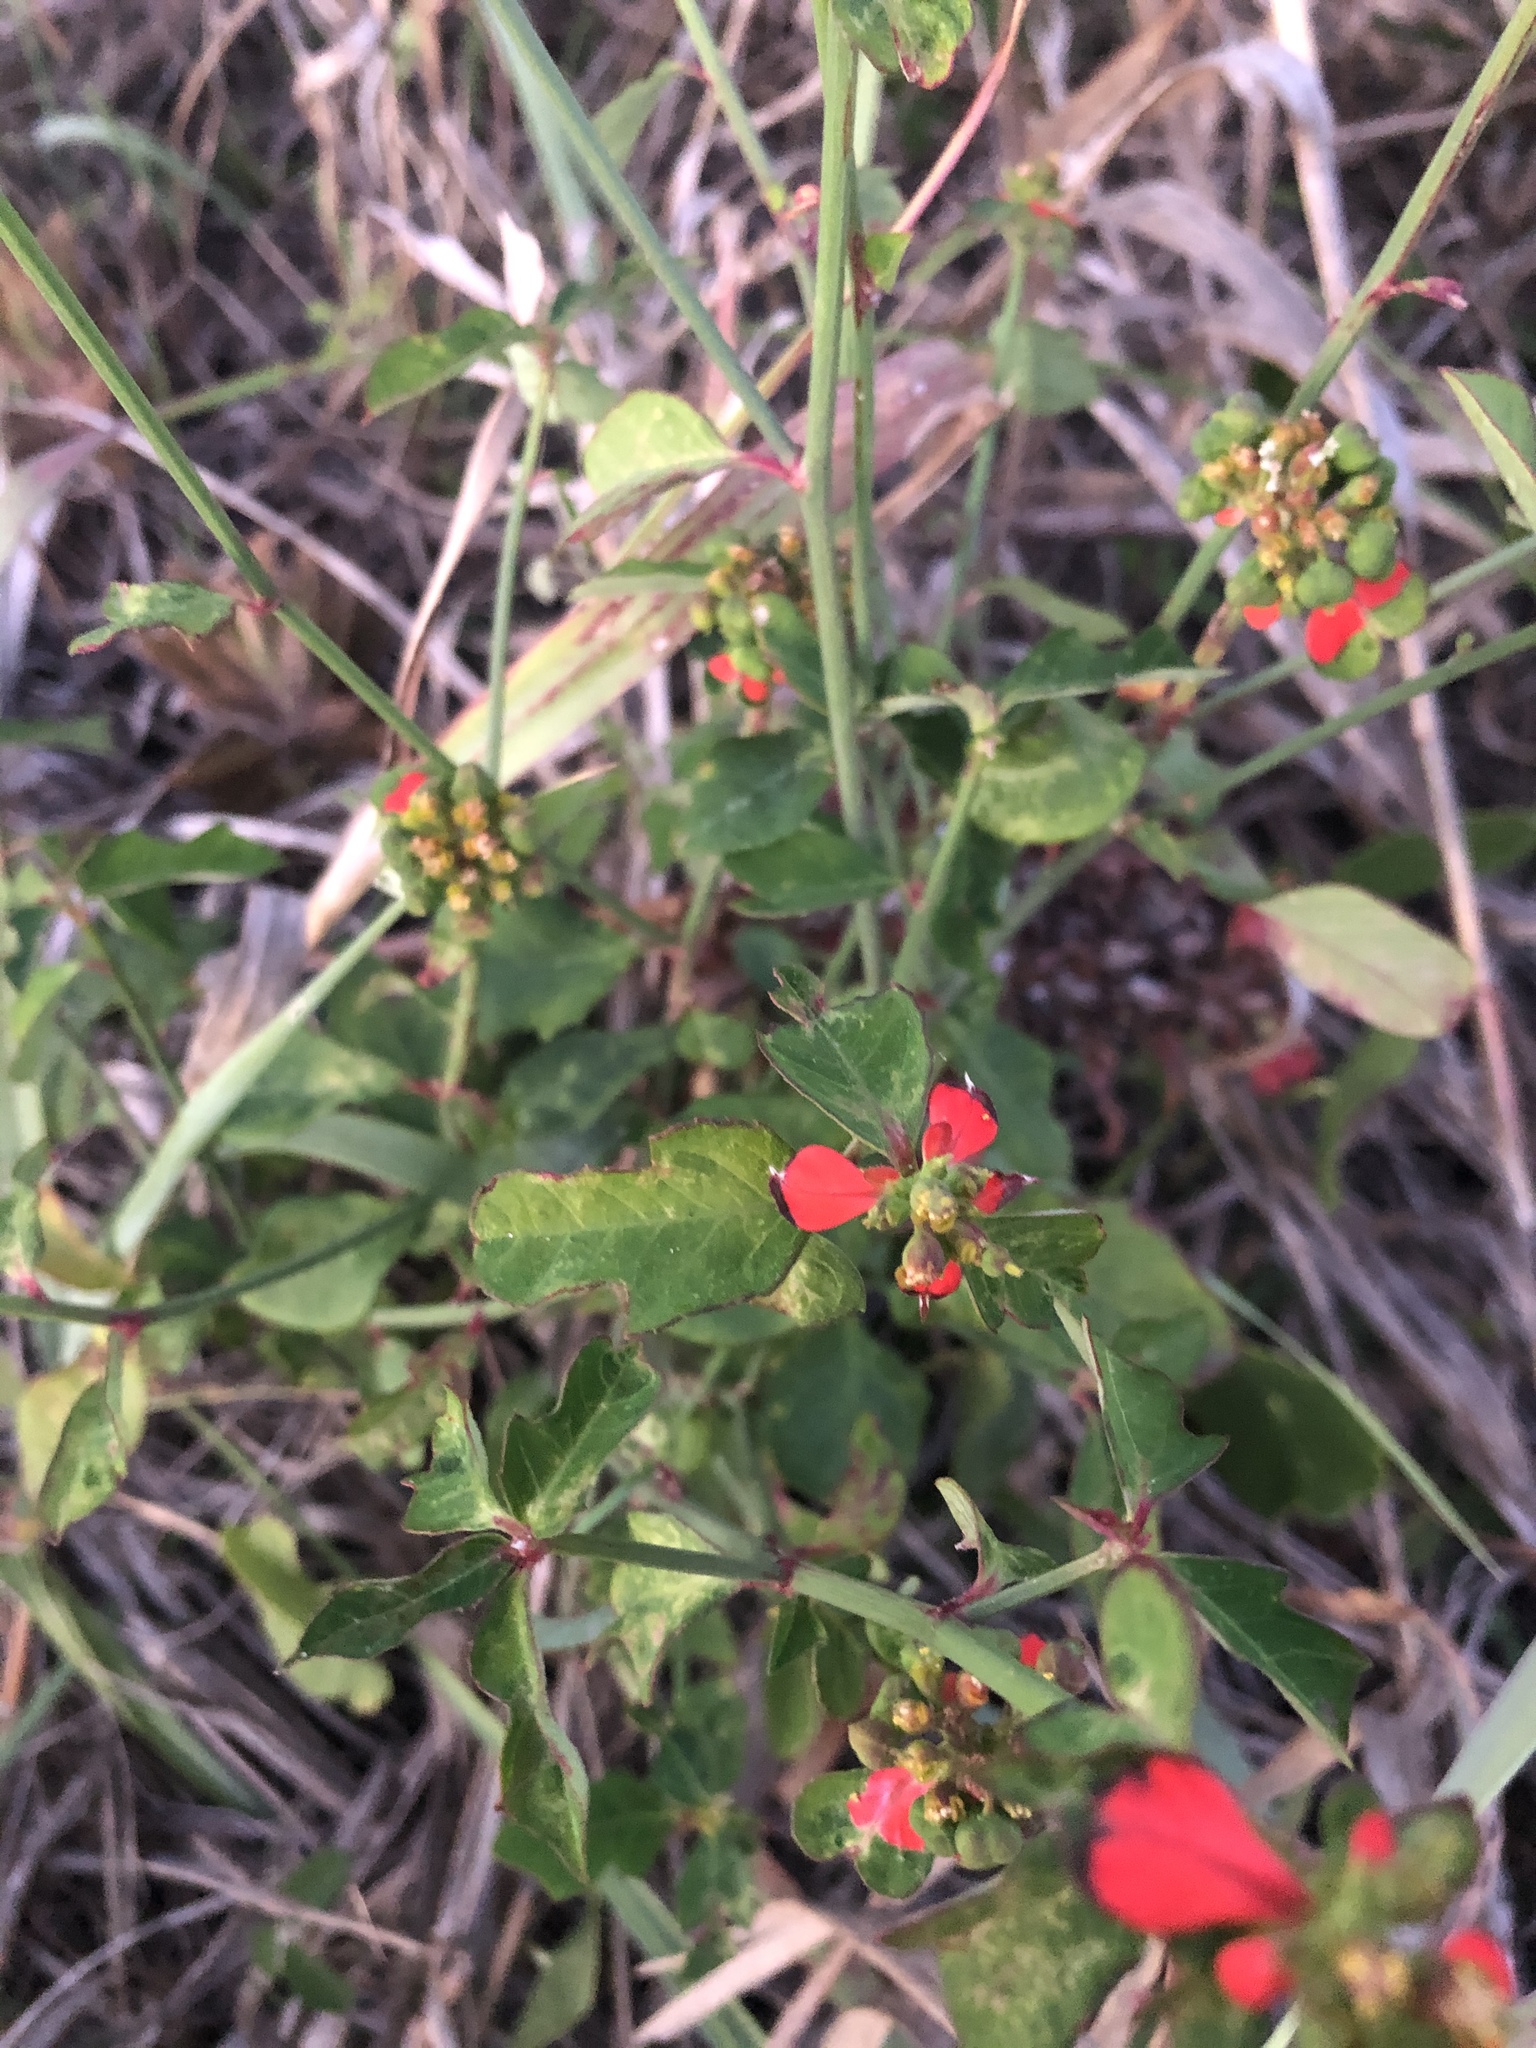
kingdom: Plantae
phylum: Tracheophyta
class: Magnoliopsida
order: Malpighiales
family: Euphorbiaceae
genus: Euphorbia
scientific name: Euphorbia heterophylla
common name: Mexican fireplant
